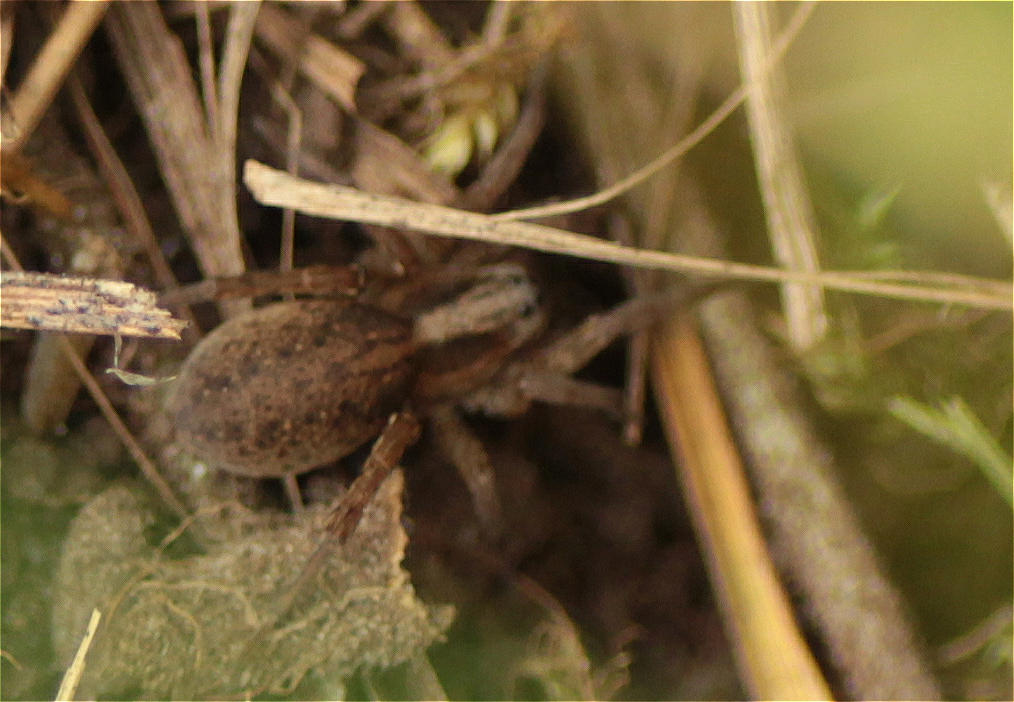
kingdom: Animalia
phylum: Arthropoda
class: Arachnida
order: Araneae
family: Lycosidae
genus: Trochosa
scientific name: Trochosa
